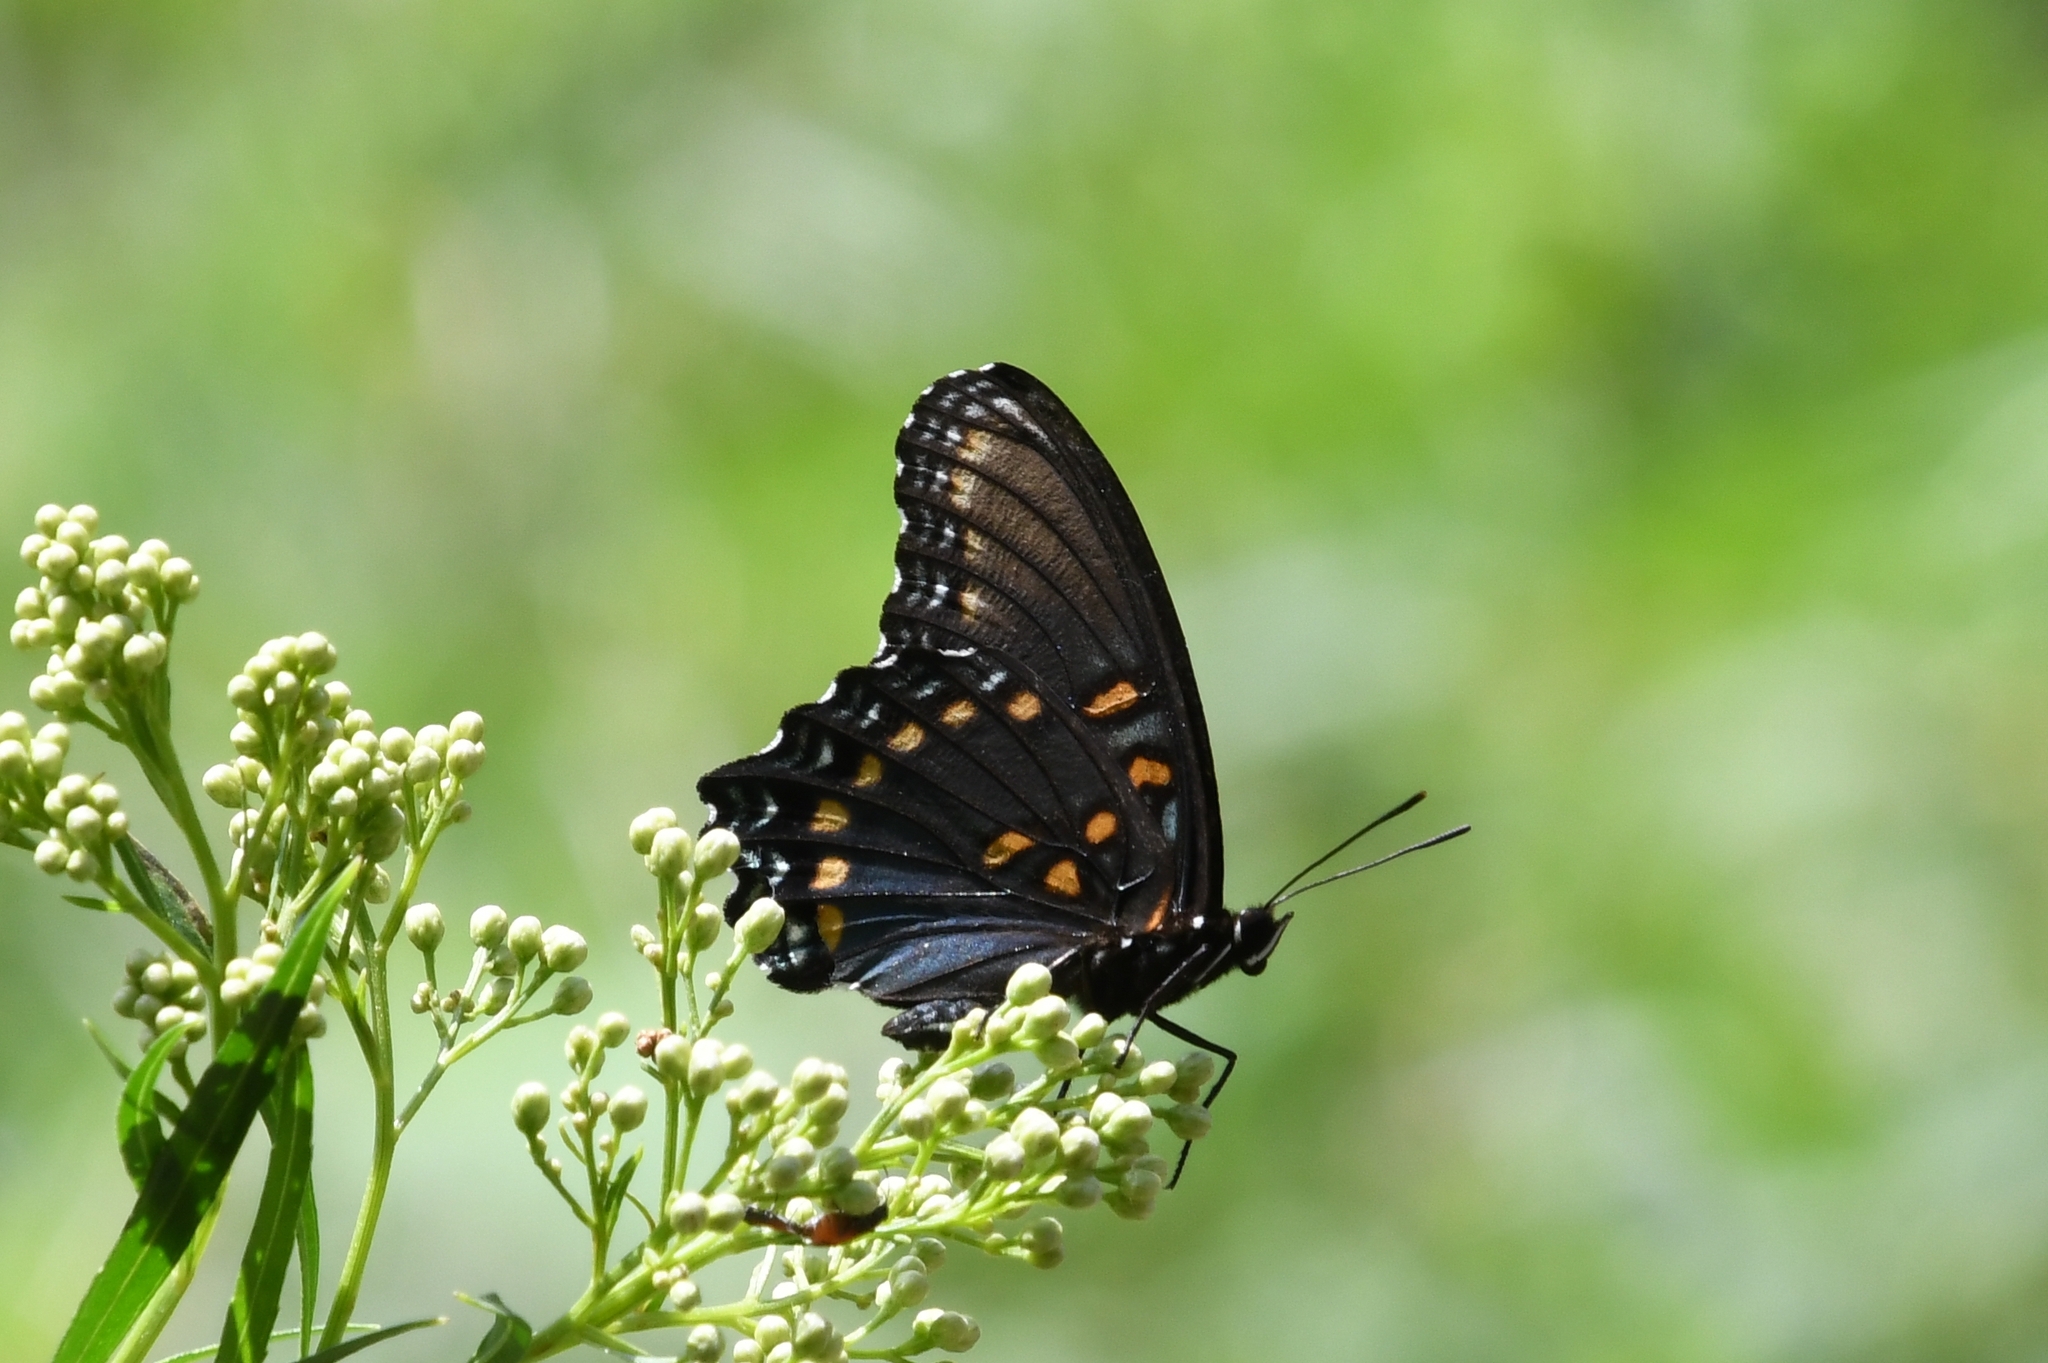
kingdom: Animalia
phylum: Arthropoda
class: Insecta
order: Lepidoptera
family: Nymphalidae
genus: Limenitis
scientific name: Limenitis arthemis
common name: Red-spotted admiral
